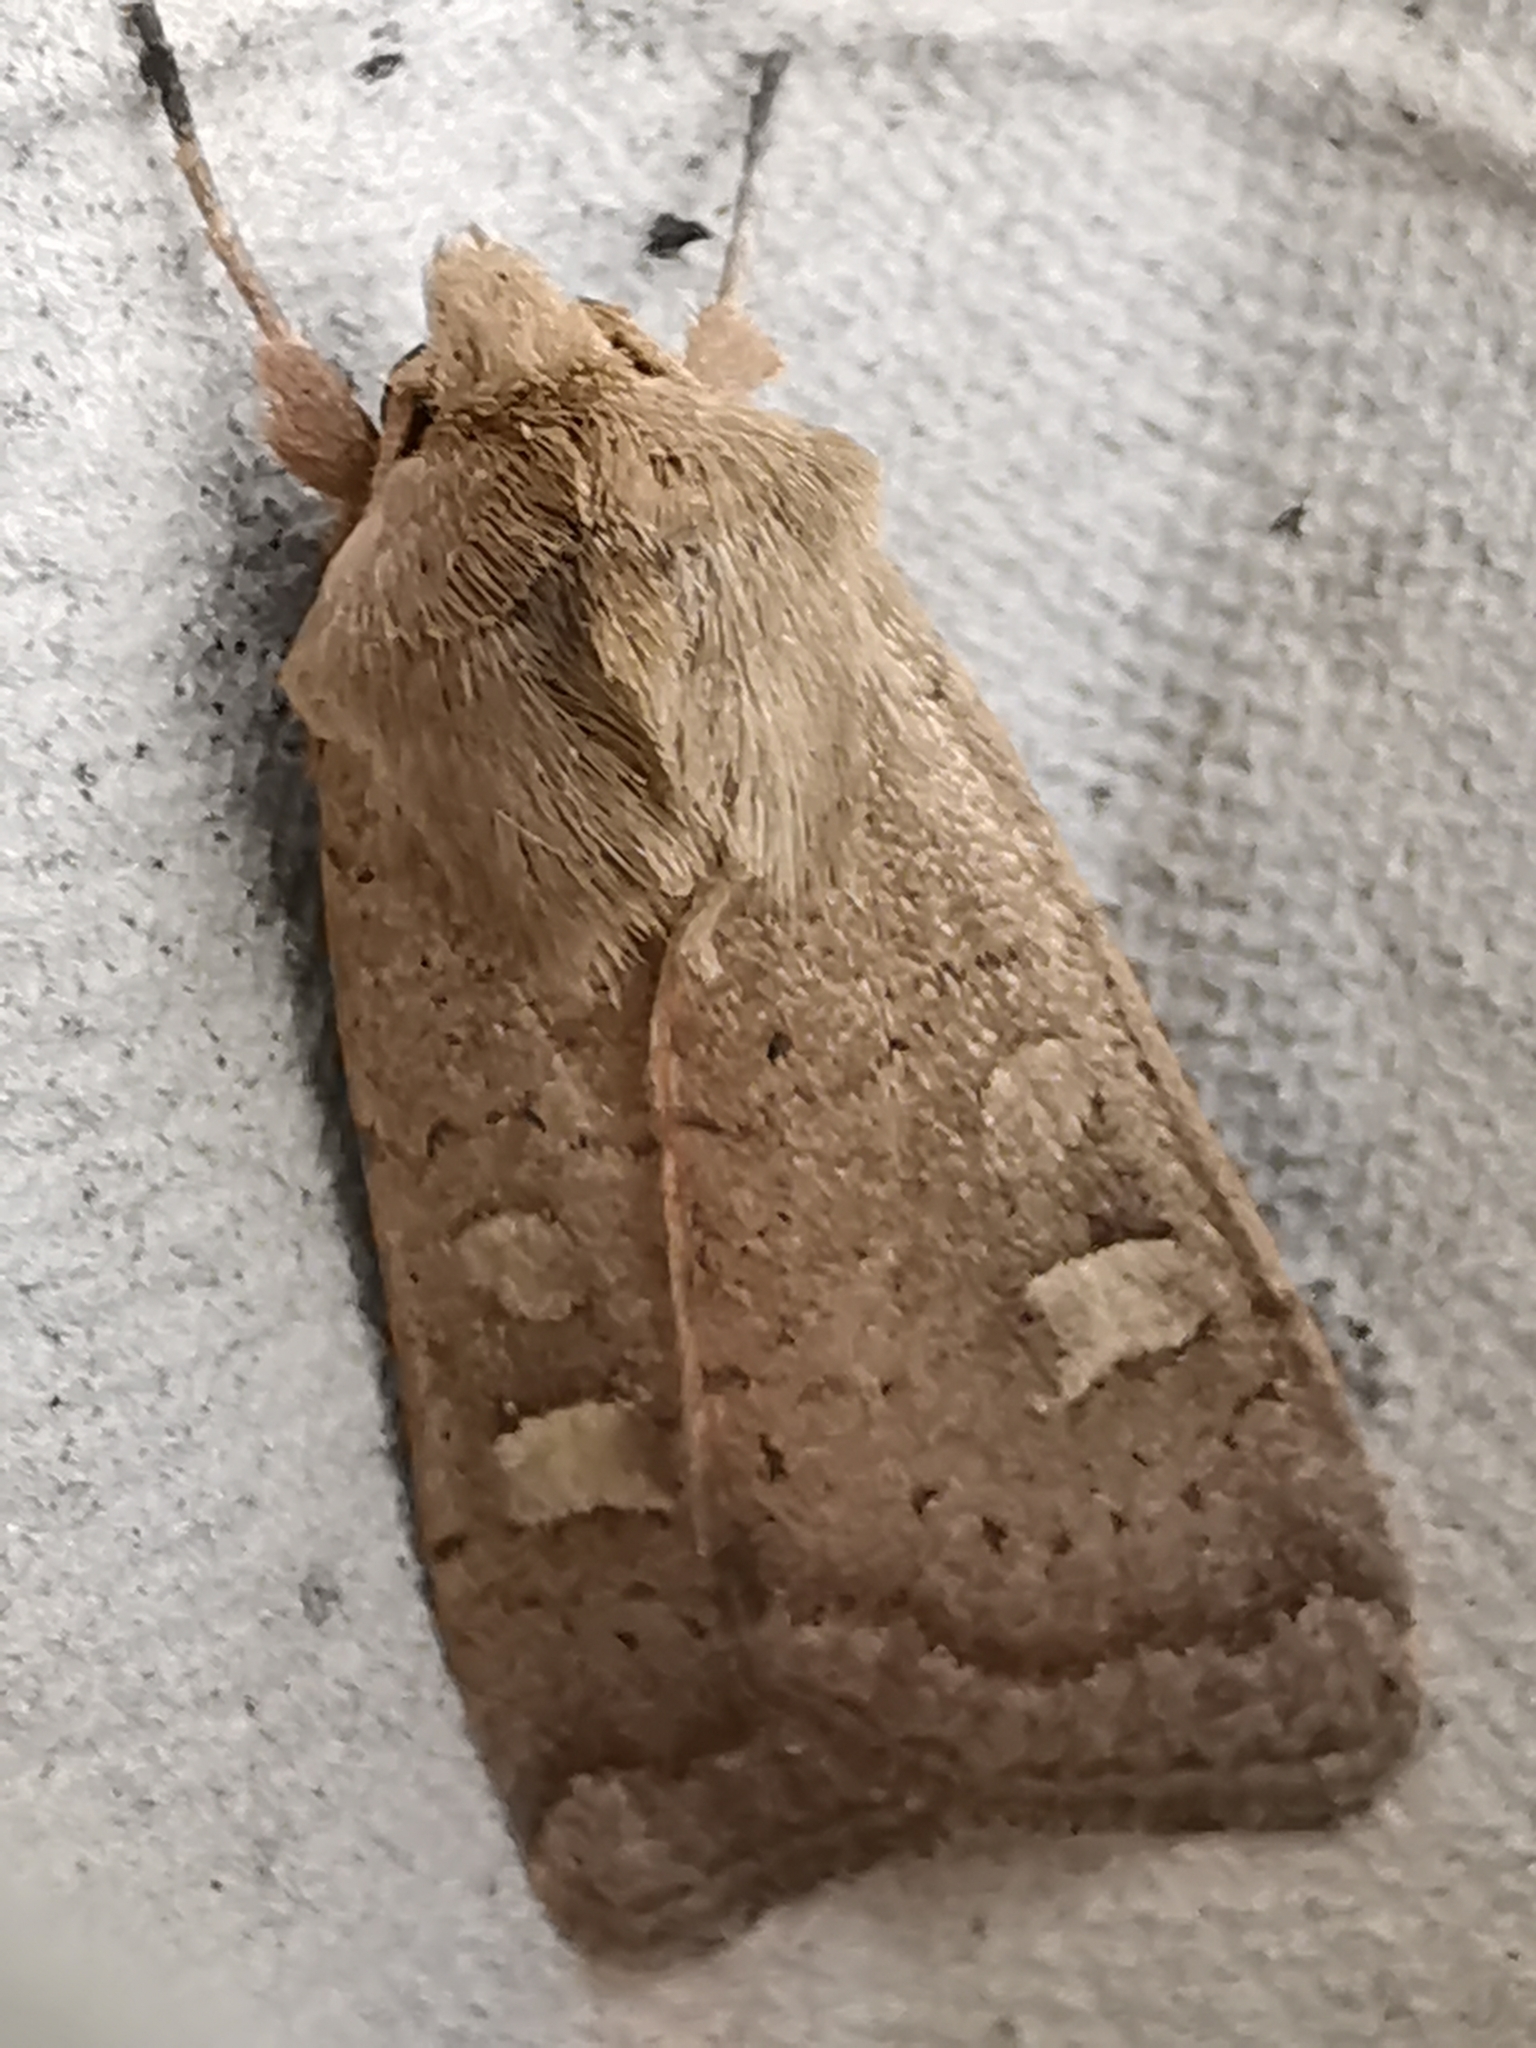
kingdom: Animalia
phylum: Arthropoda
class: Insecta
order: Lepidoptera
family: Noctuidae
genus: Xestia
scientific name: Xestia xanthographa
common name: Square-spot rustic
